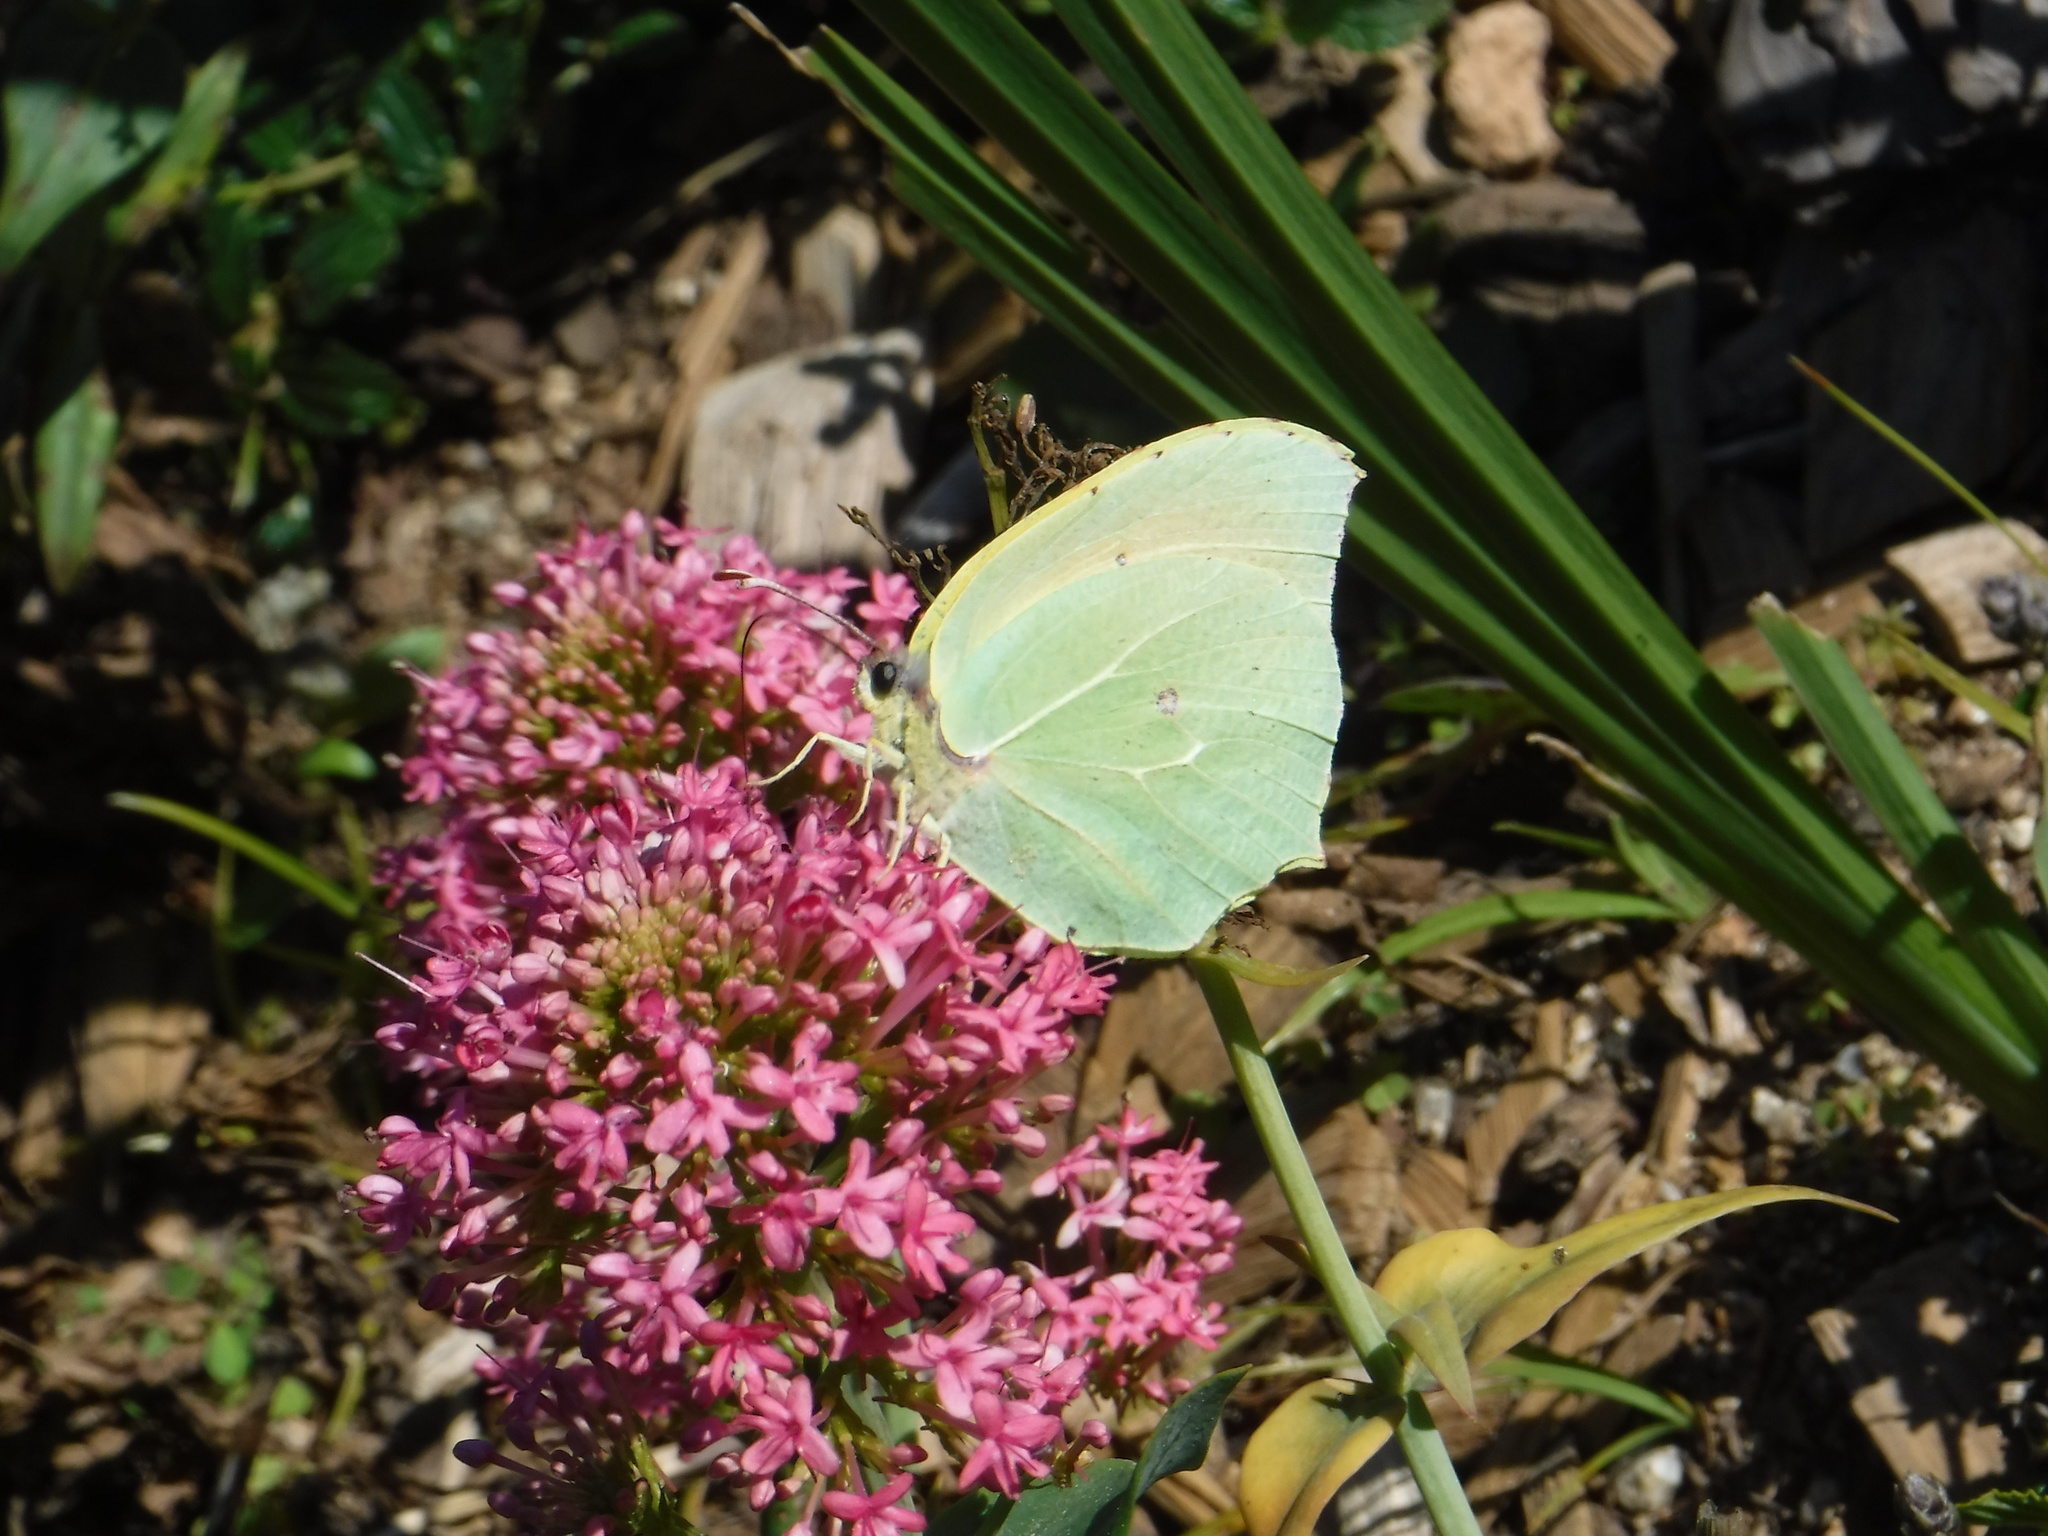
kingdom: Animalia
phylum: Arthropoda
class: Insecta
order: Lepidoptera
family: Pieridae
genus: Gonepteryx
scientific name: Gonepteryx cleopatra
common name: Cleopatra
